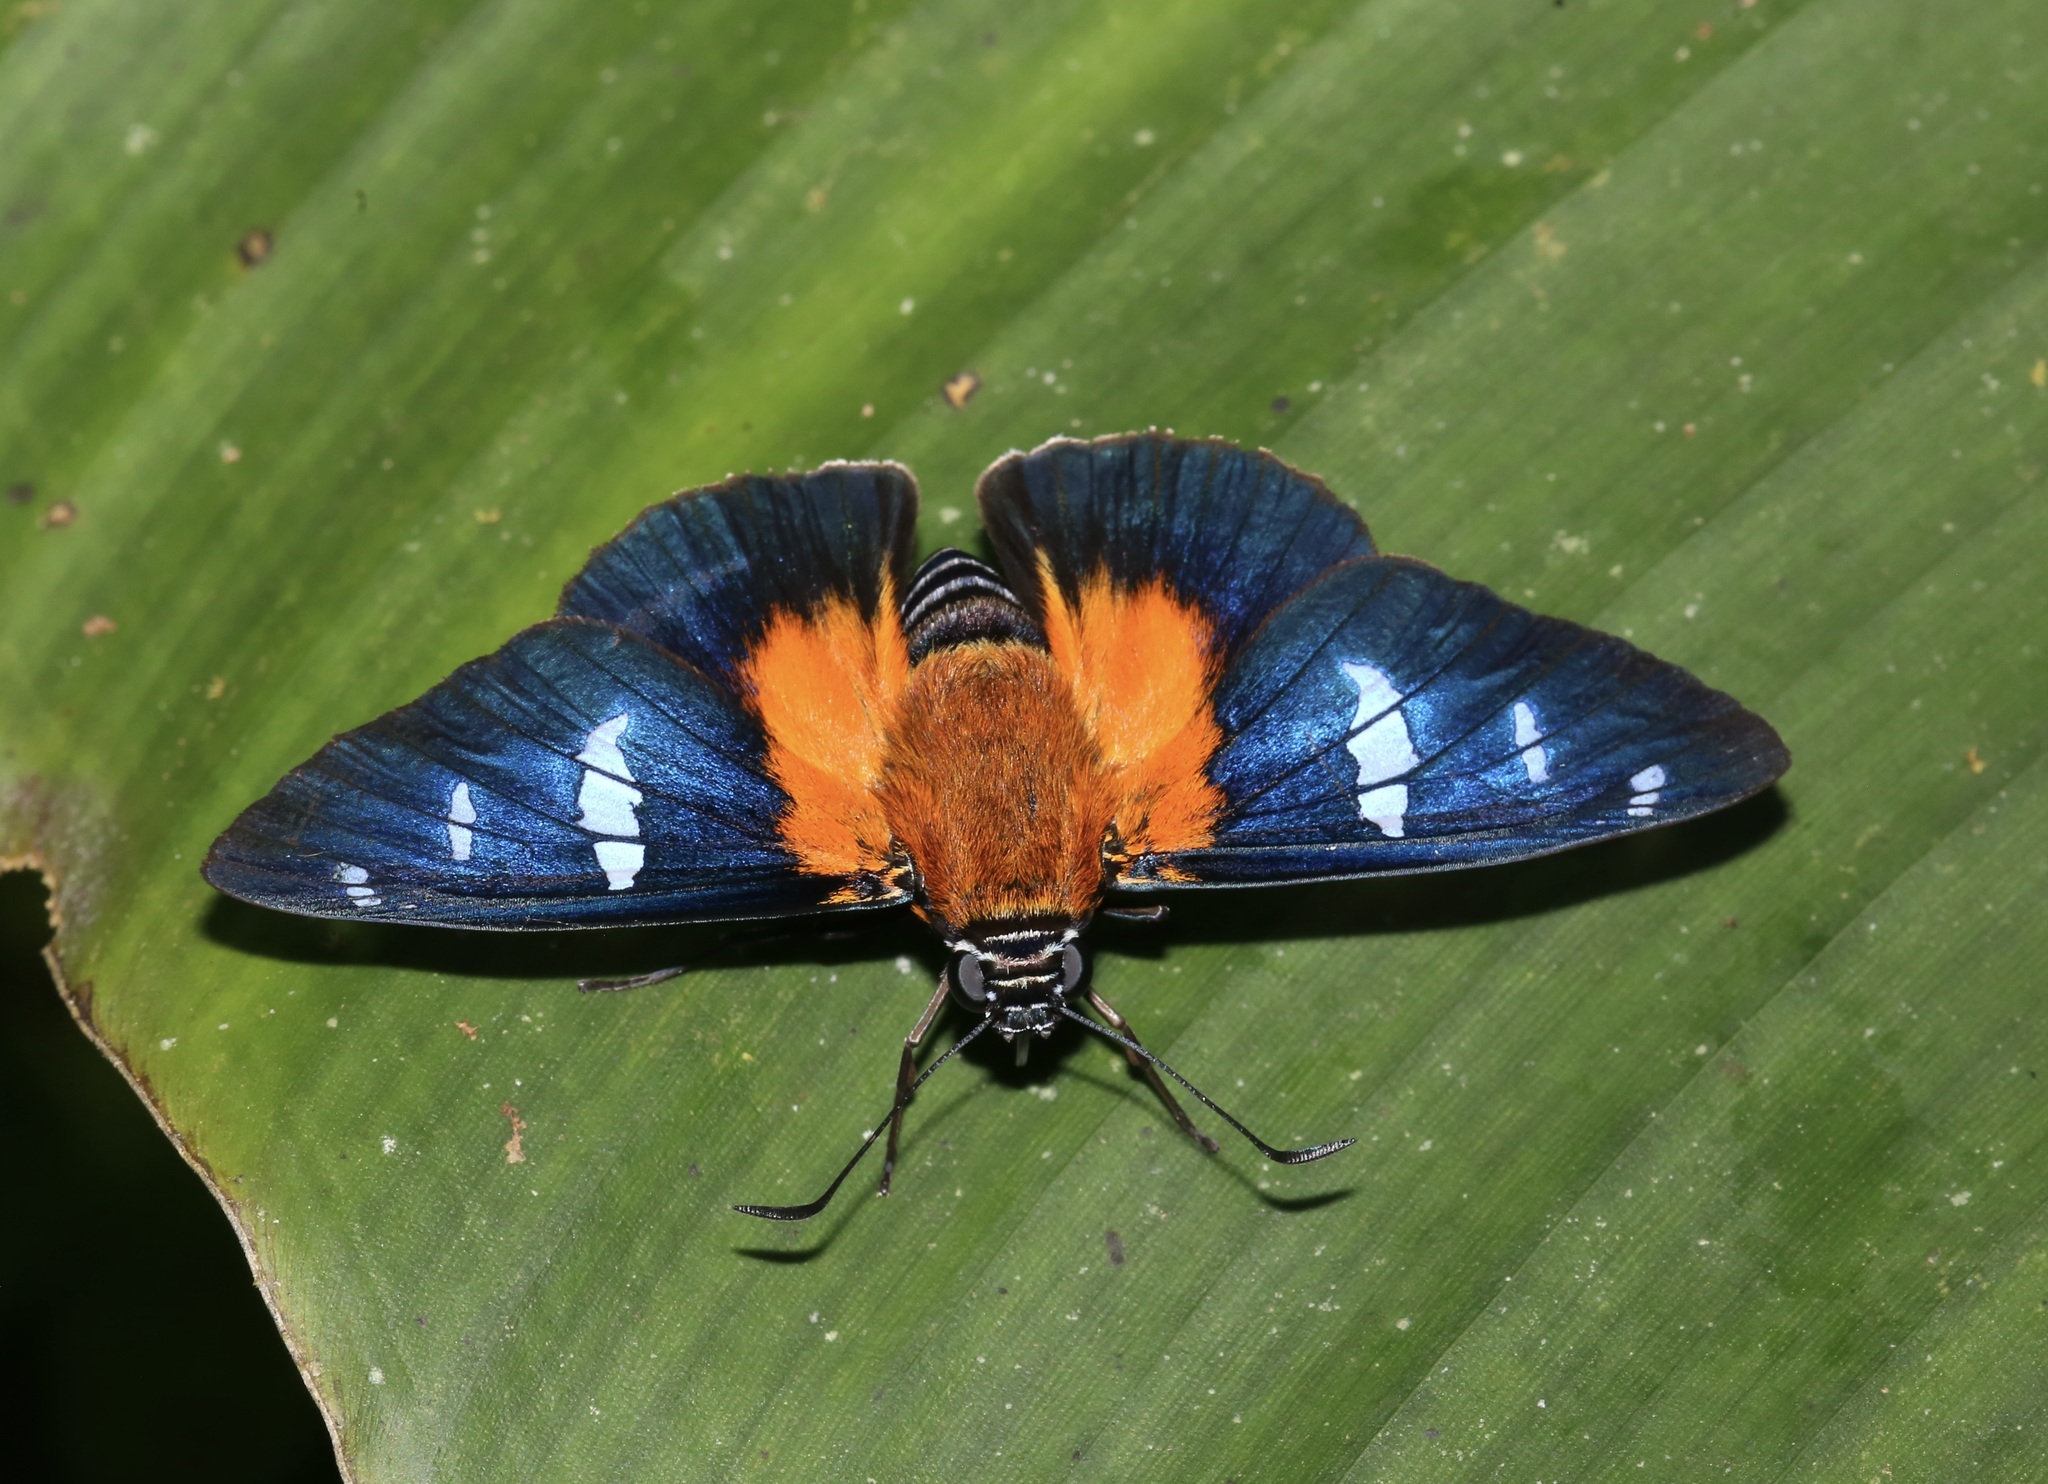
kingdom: Animalia
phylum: Arthropoda
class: Insecta
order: Lepidoptera
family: Hesperiidae
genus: Pyrrhopyge
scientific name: Pyrrhopyge Yanguna cosyra
